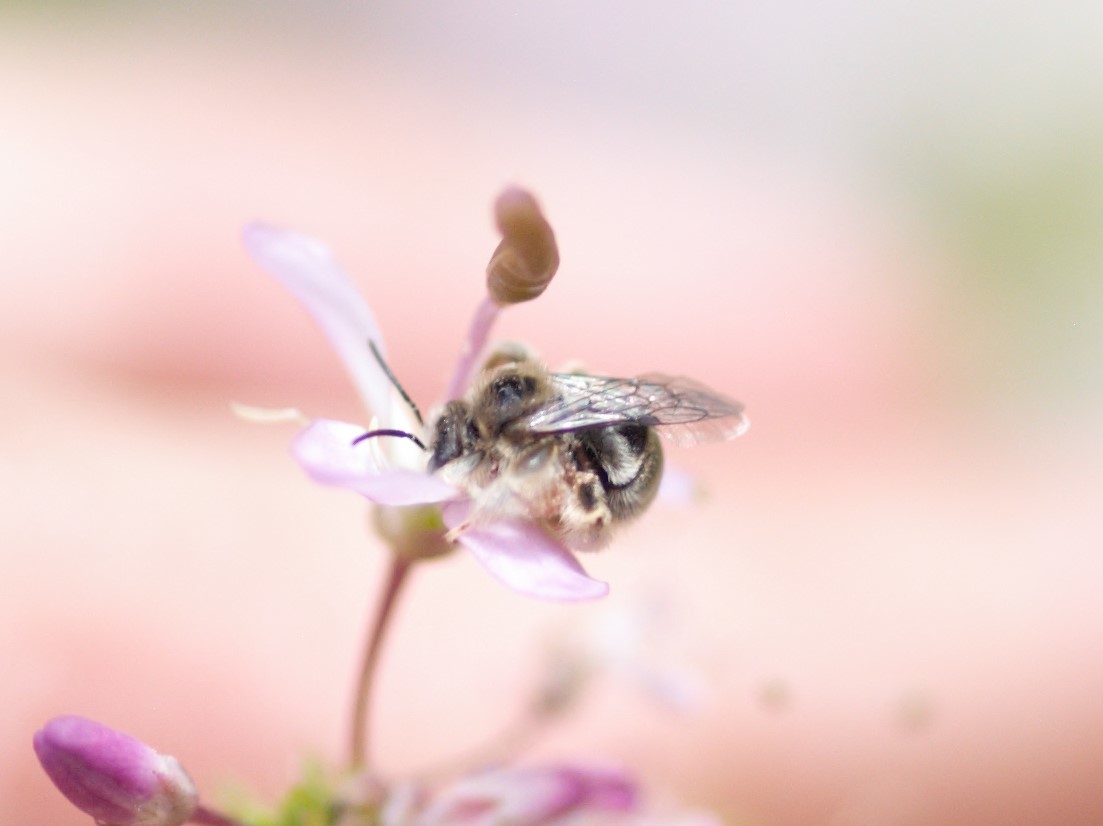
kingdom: Animalia
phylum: Arthropoda
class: Insecta
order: Hymenoptera
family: Apidae
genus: Anthophorula
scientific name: Anthophorula
